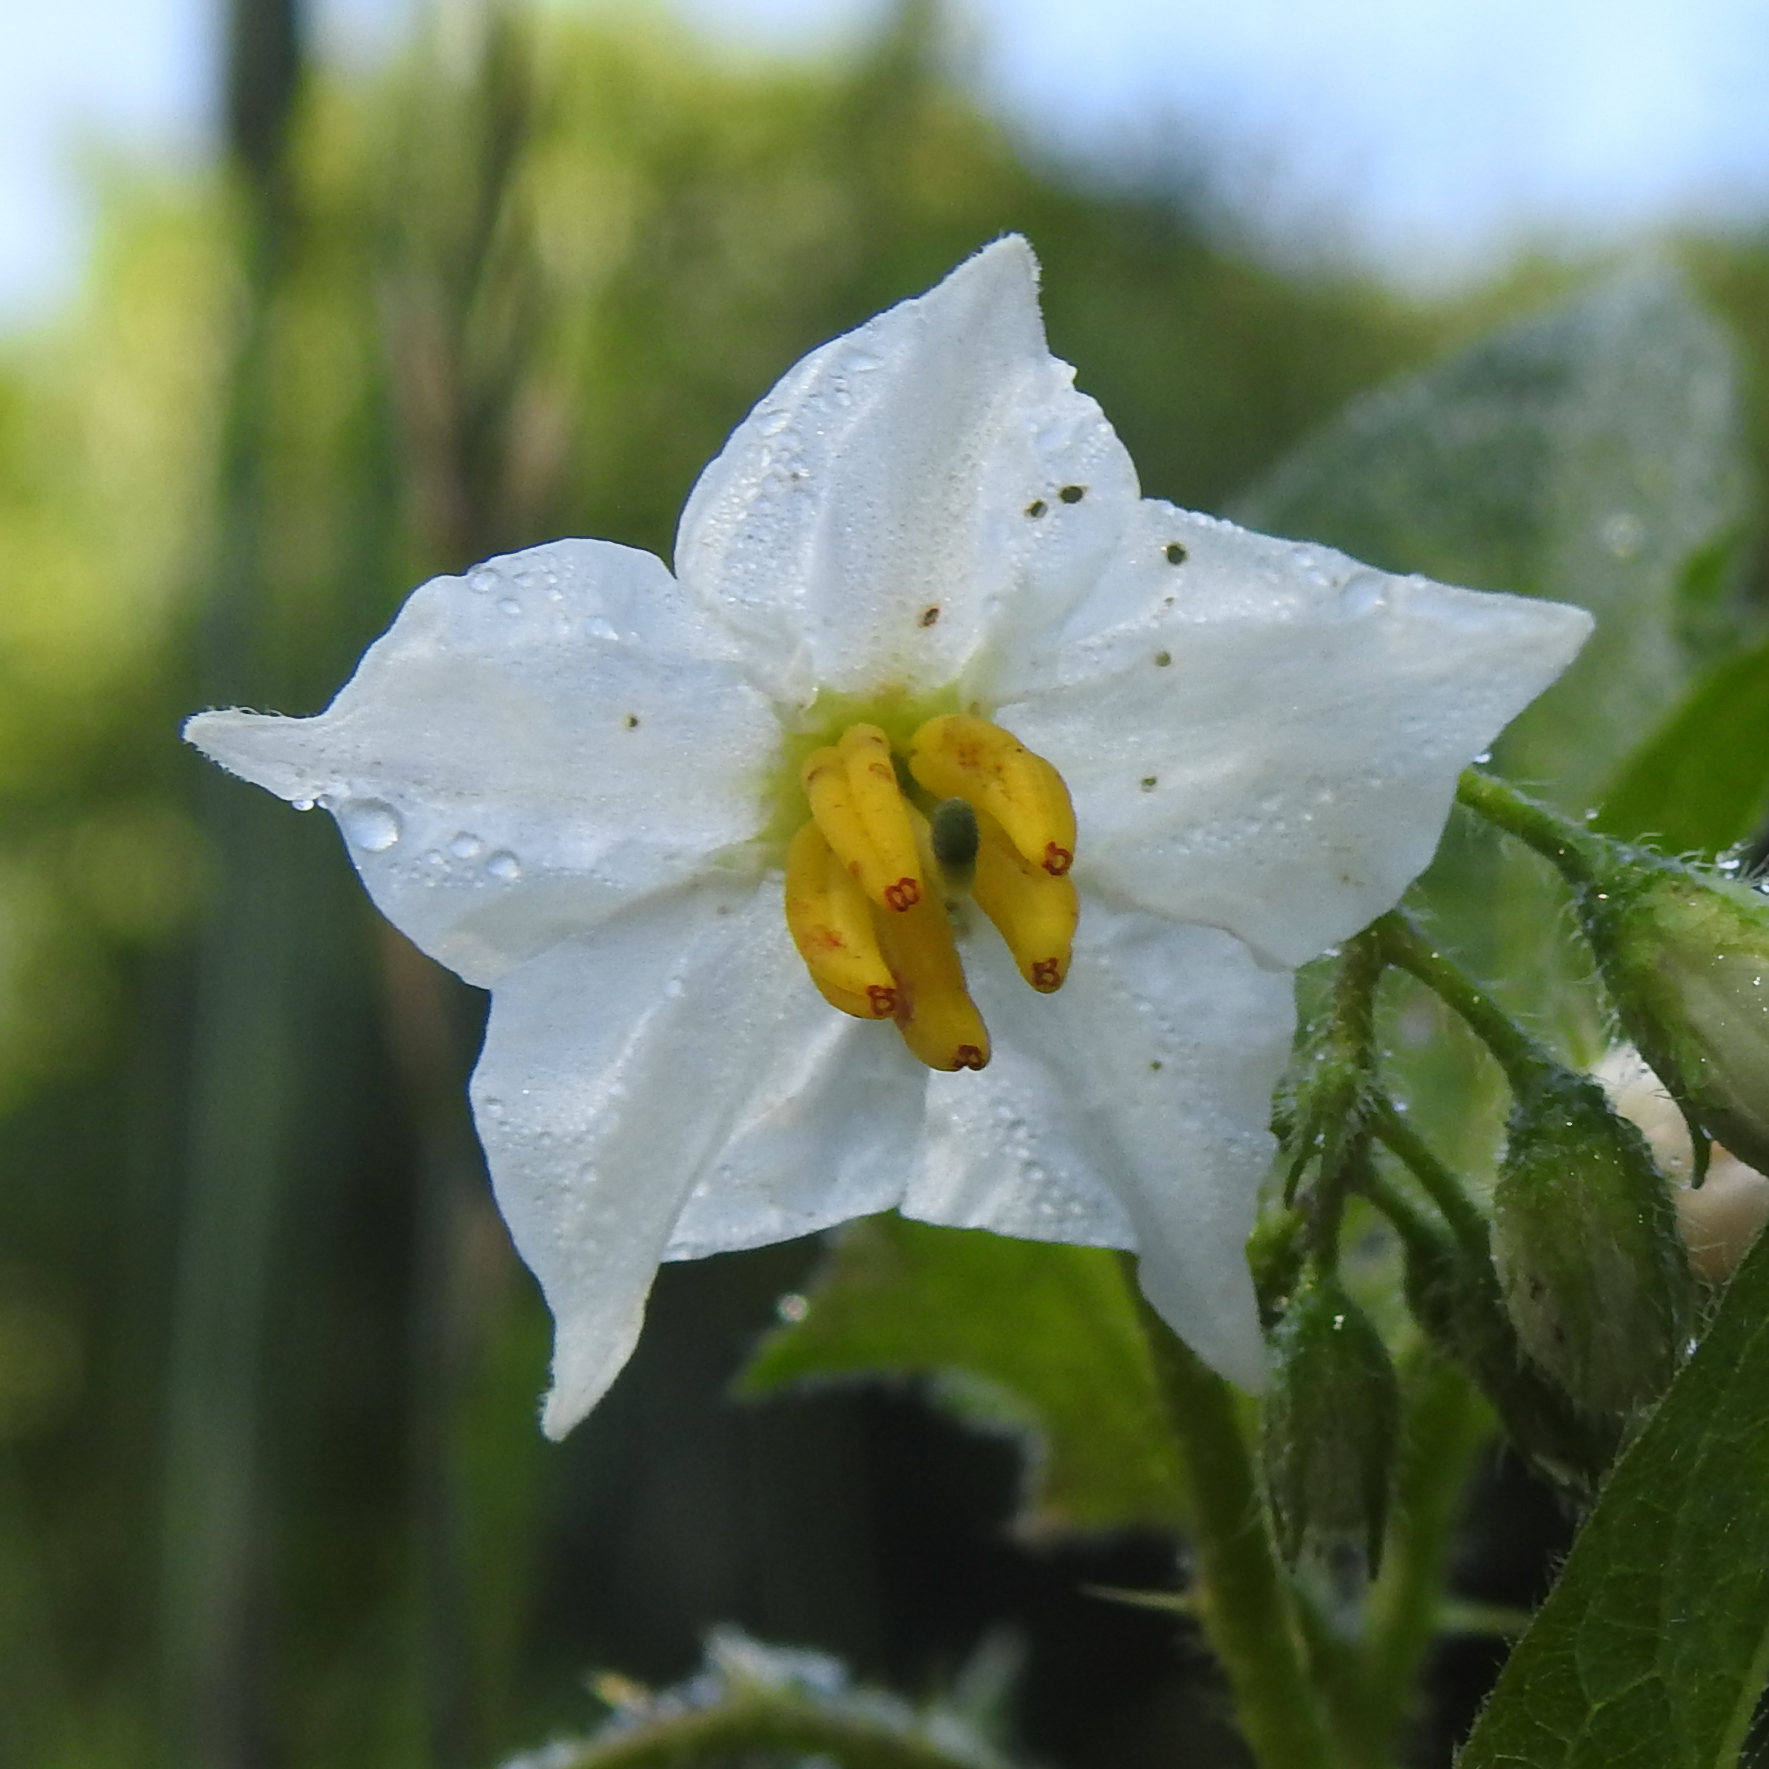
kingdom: Plantae
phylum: Tracheophyta
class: Magnoliopsida
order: Solanales
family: Solanaceae
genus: Solanum
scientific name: Solanum carolinense
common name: Horse-nettle
